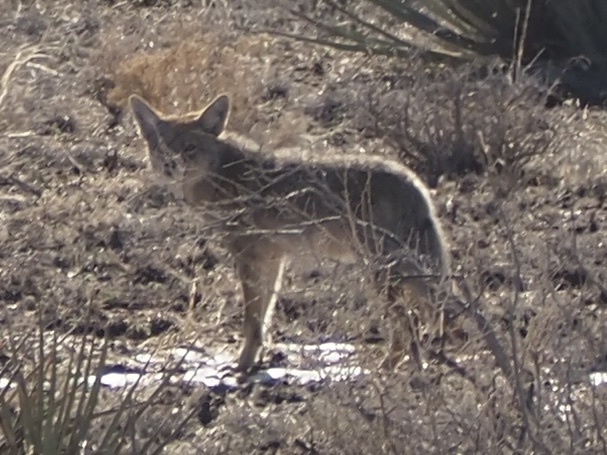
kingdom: Animalia
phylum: Chordata
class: Mammalia
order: Carnivora
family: Canidae
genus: Canis
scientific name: Canis latrans
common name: Coyote
